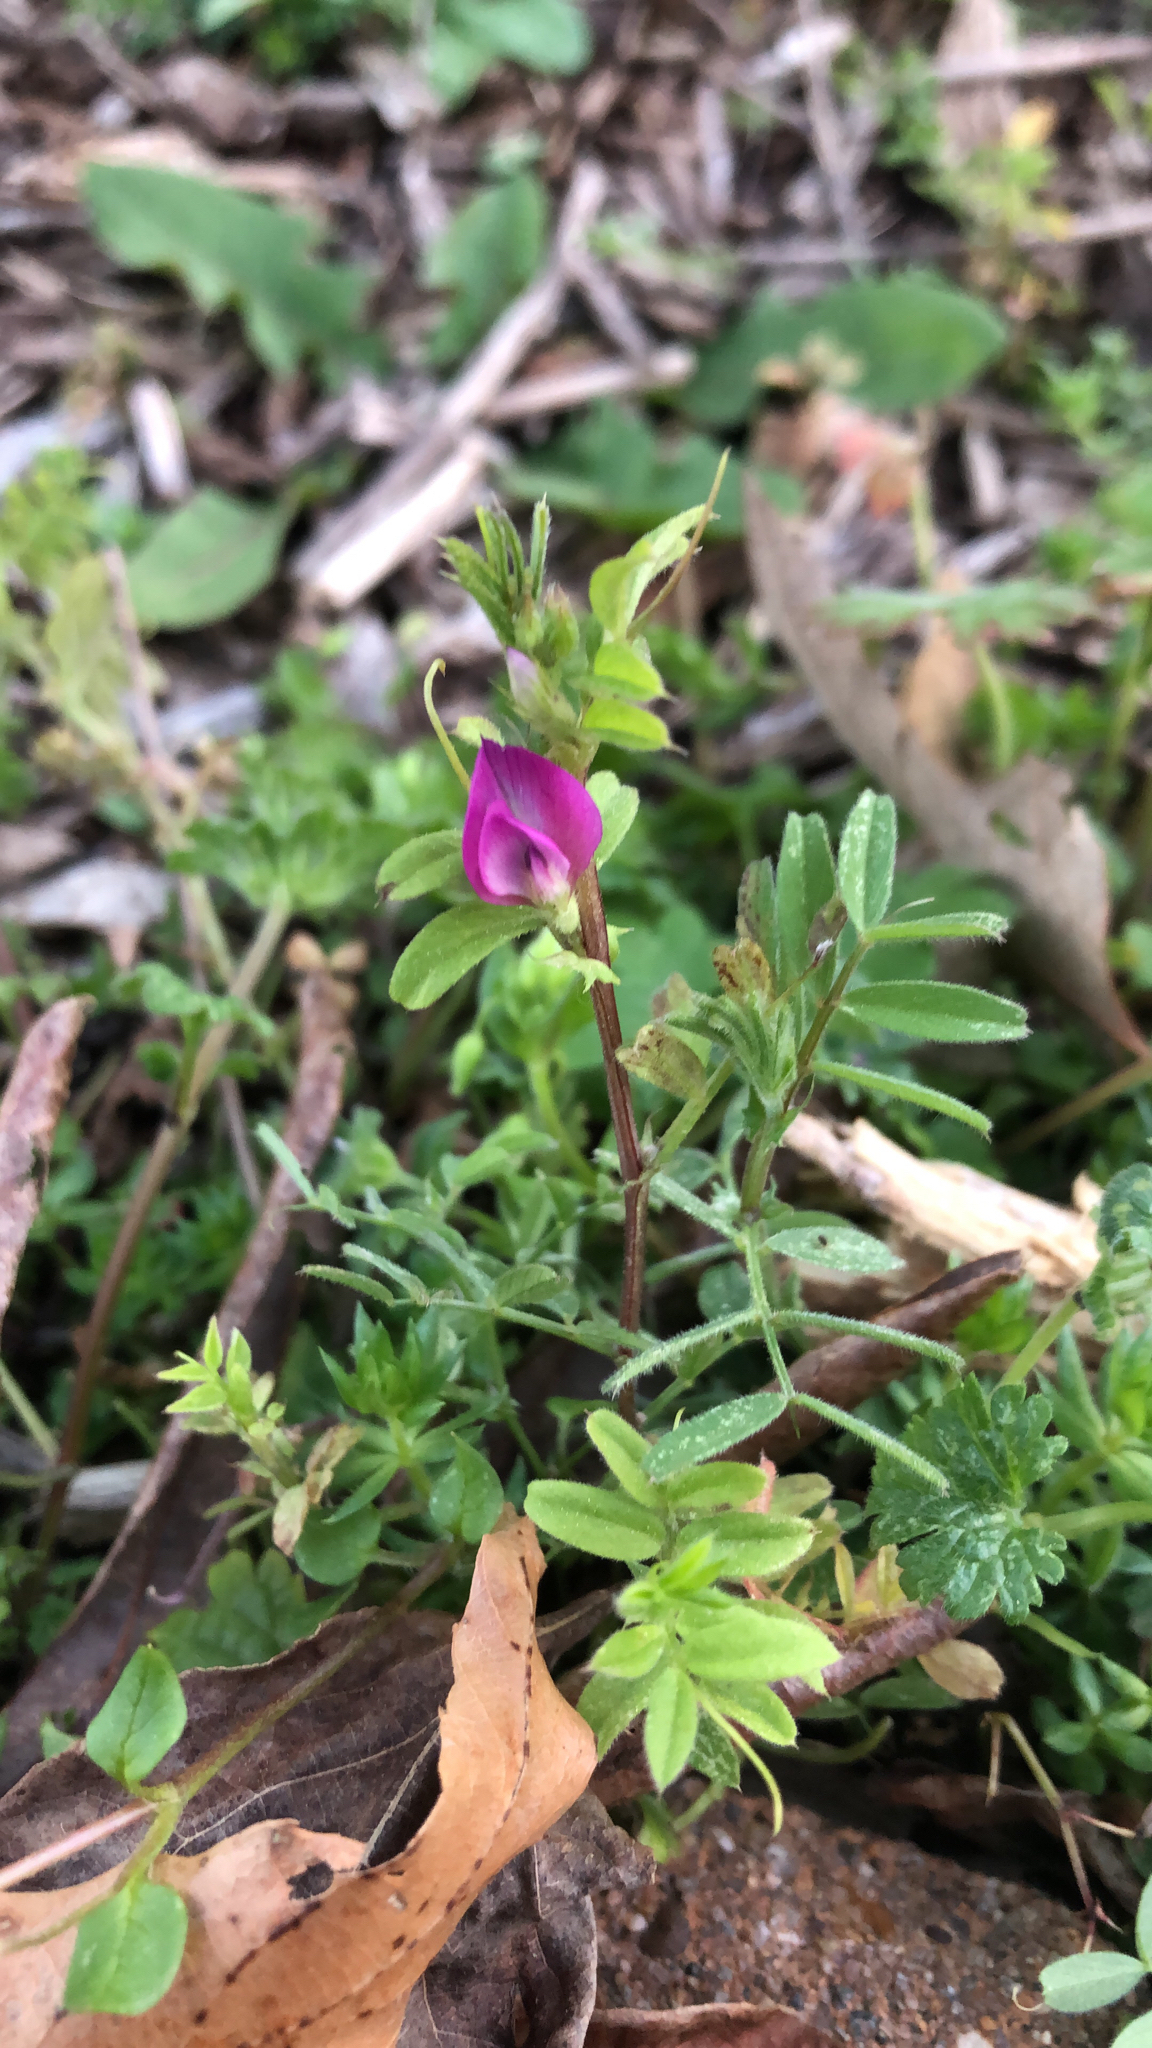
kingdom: Plantae
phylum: Tracheophyta
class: Magnoliopsida
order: Fabales
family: Fabaceae
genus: Vicia
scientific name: Vicia sativa
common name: Garden vetch
